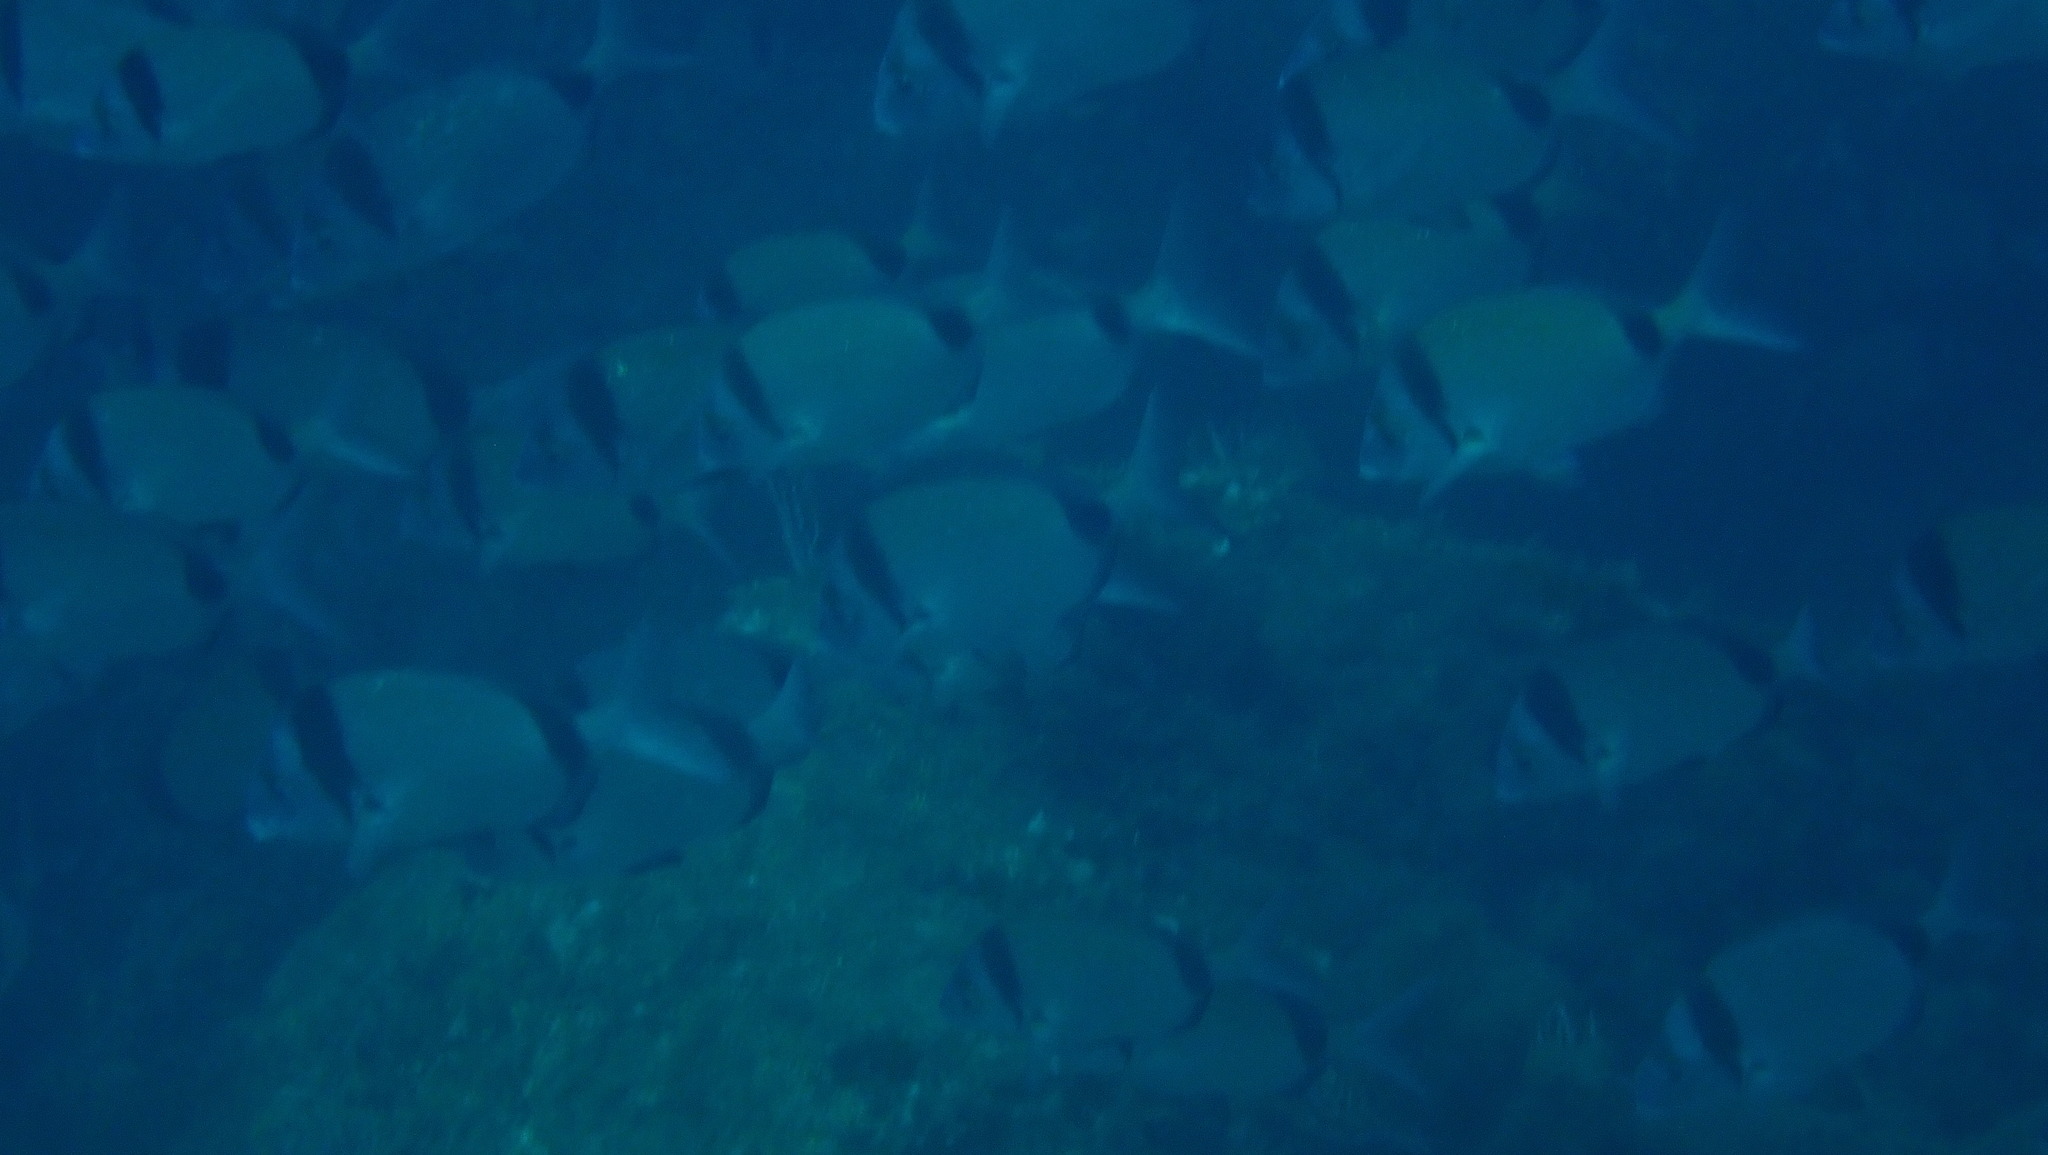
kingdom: Animalia
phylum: Chordata
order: Perciformes
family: Sparidae
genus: Diplodus
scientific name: Diplodus vulgaris
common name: Common two-banded seabream
